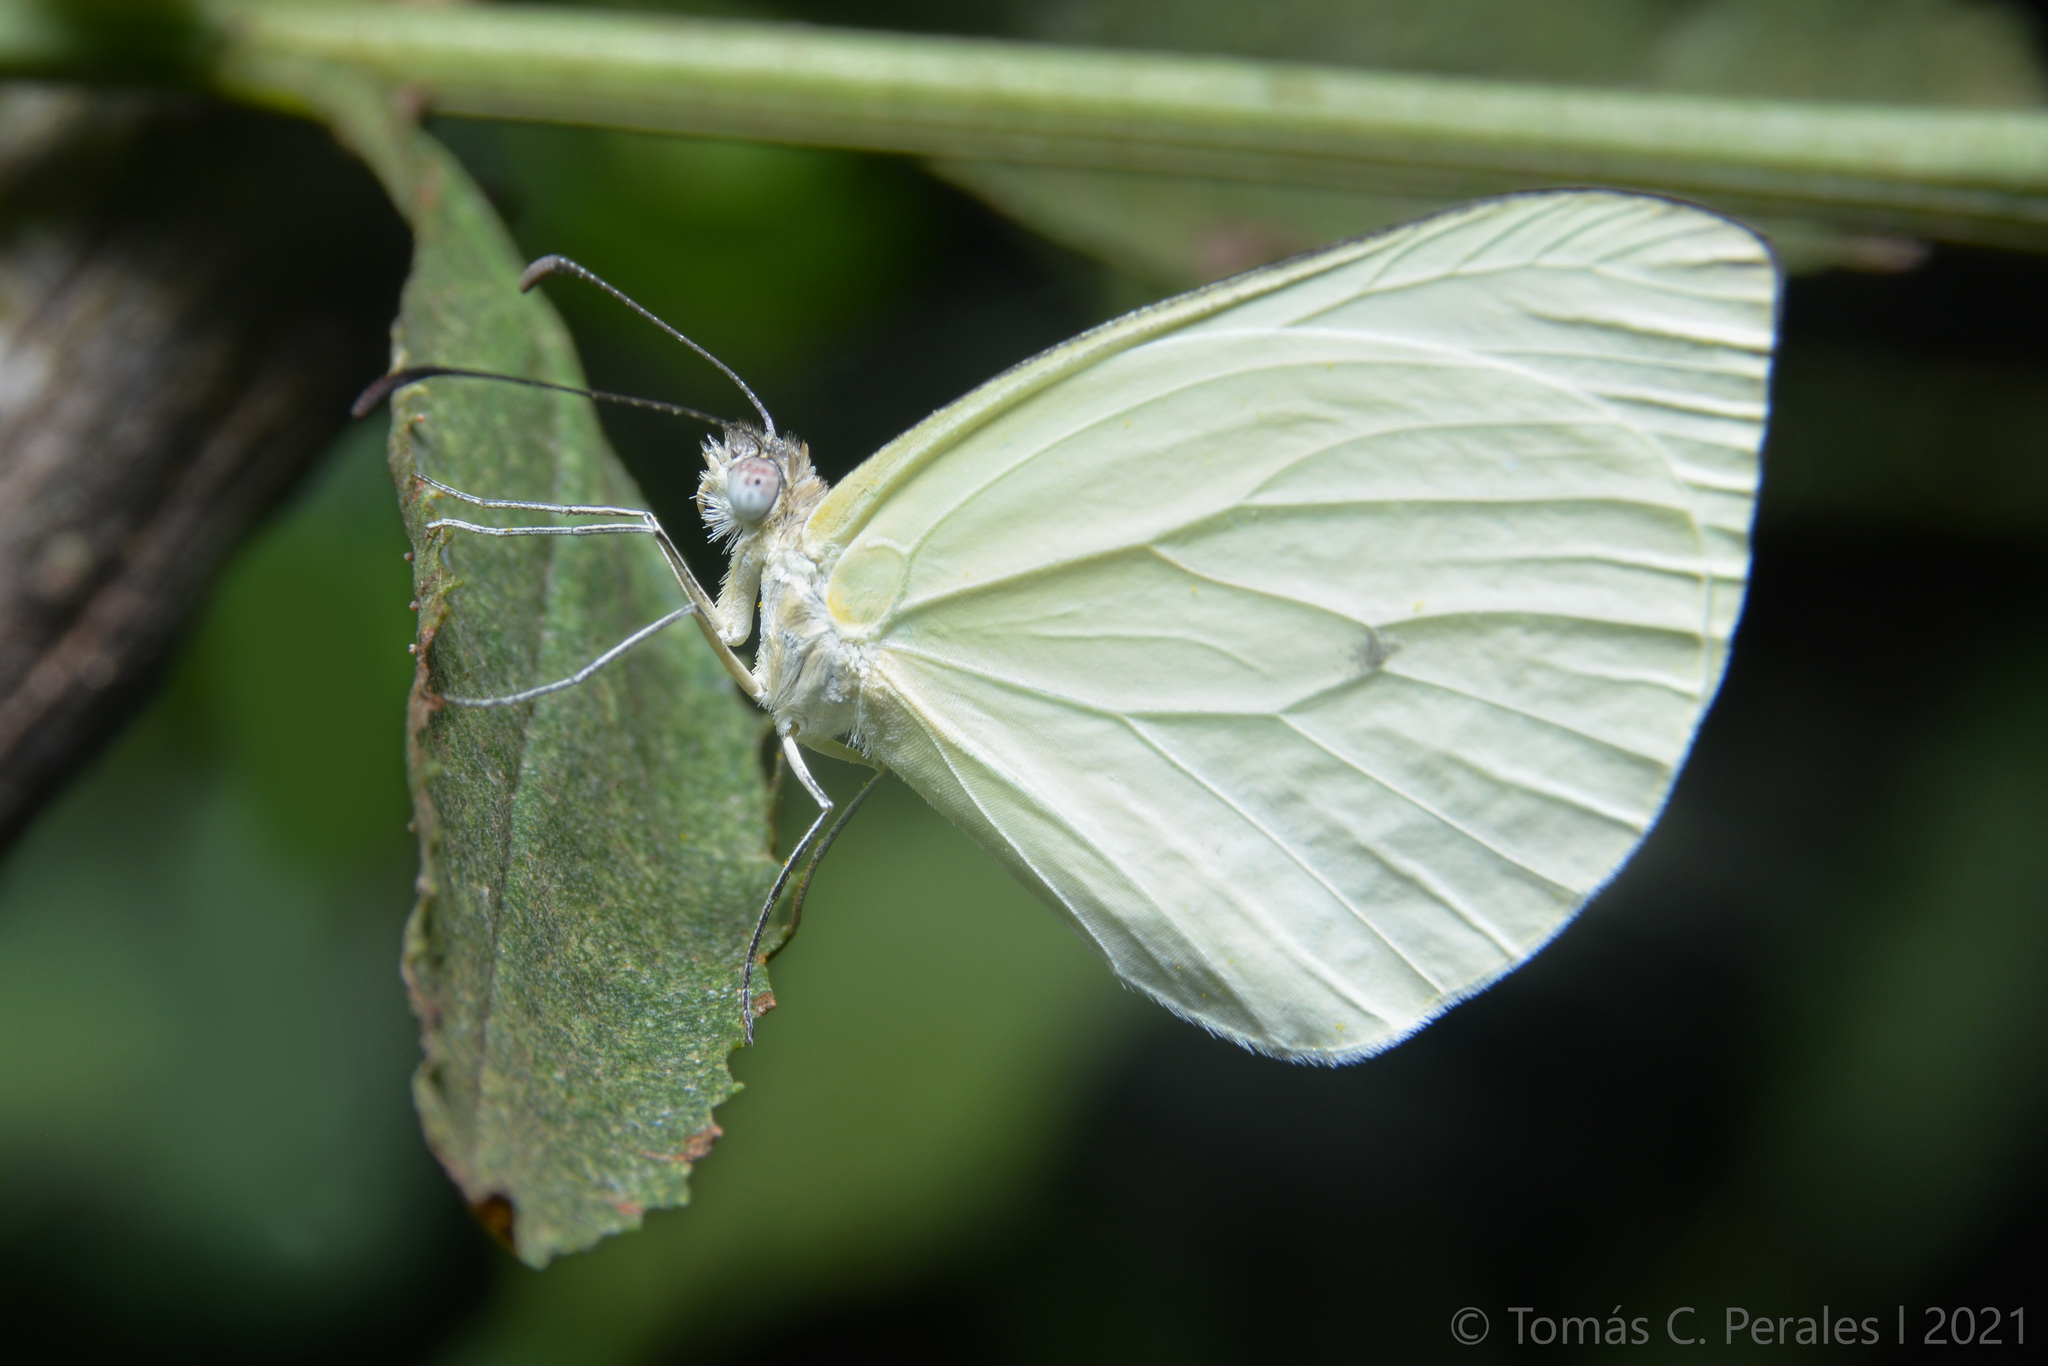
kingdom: Animalia
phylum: Arthropoda
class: Insecta
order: Lepidoptera
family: Pieridae
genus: Pseudopieris
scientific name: Pseudopieris nehemia
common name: Clean mimic-white
